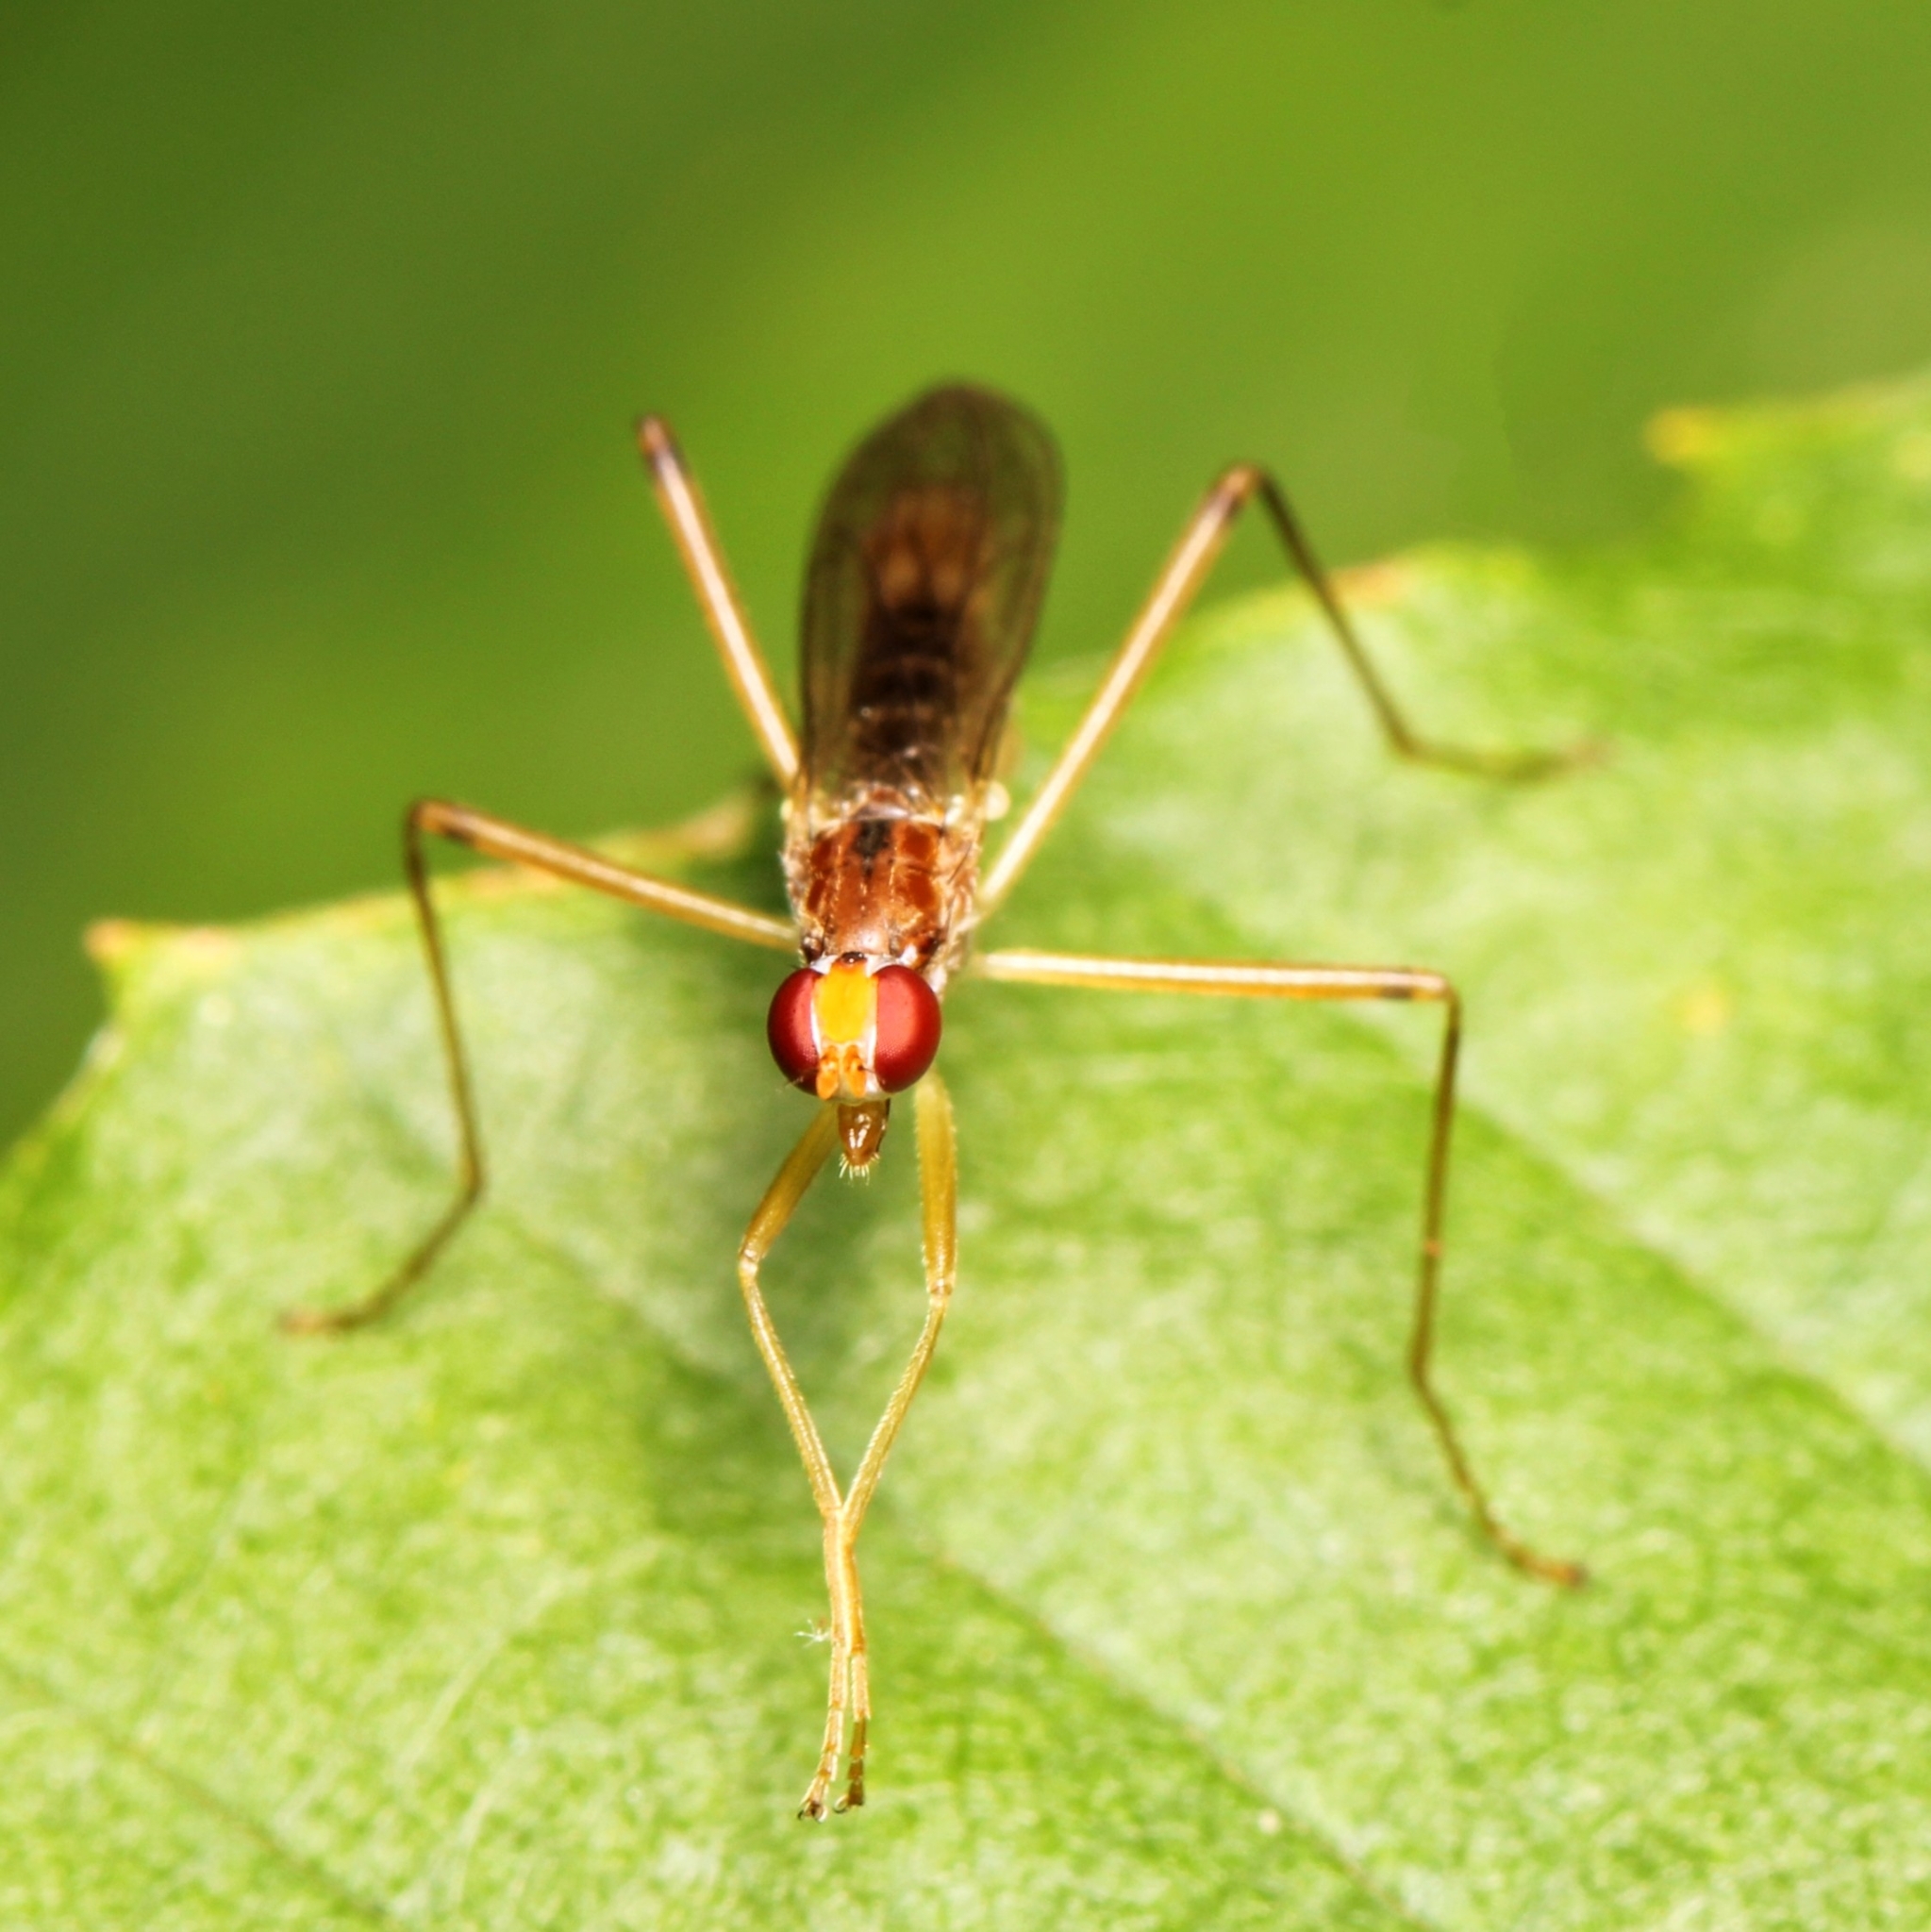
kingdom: Animalia
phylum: Arthropoda
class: Insecta
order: Diptera
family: Micropezidae
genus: Compsobata
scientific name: Compsobata univitta
